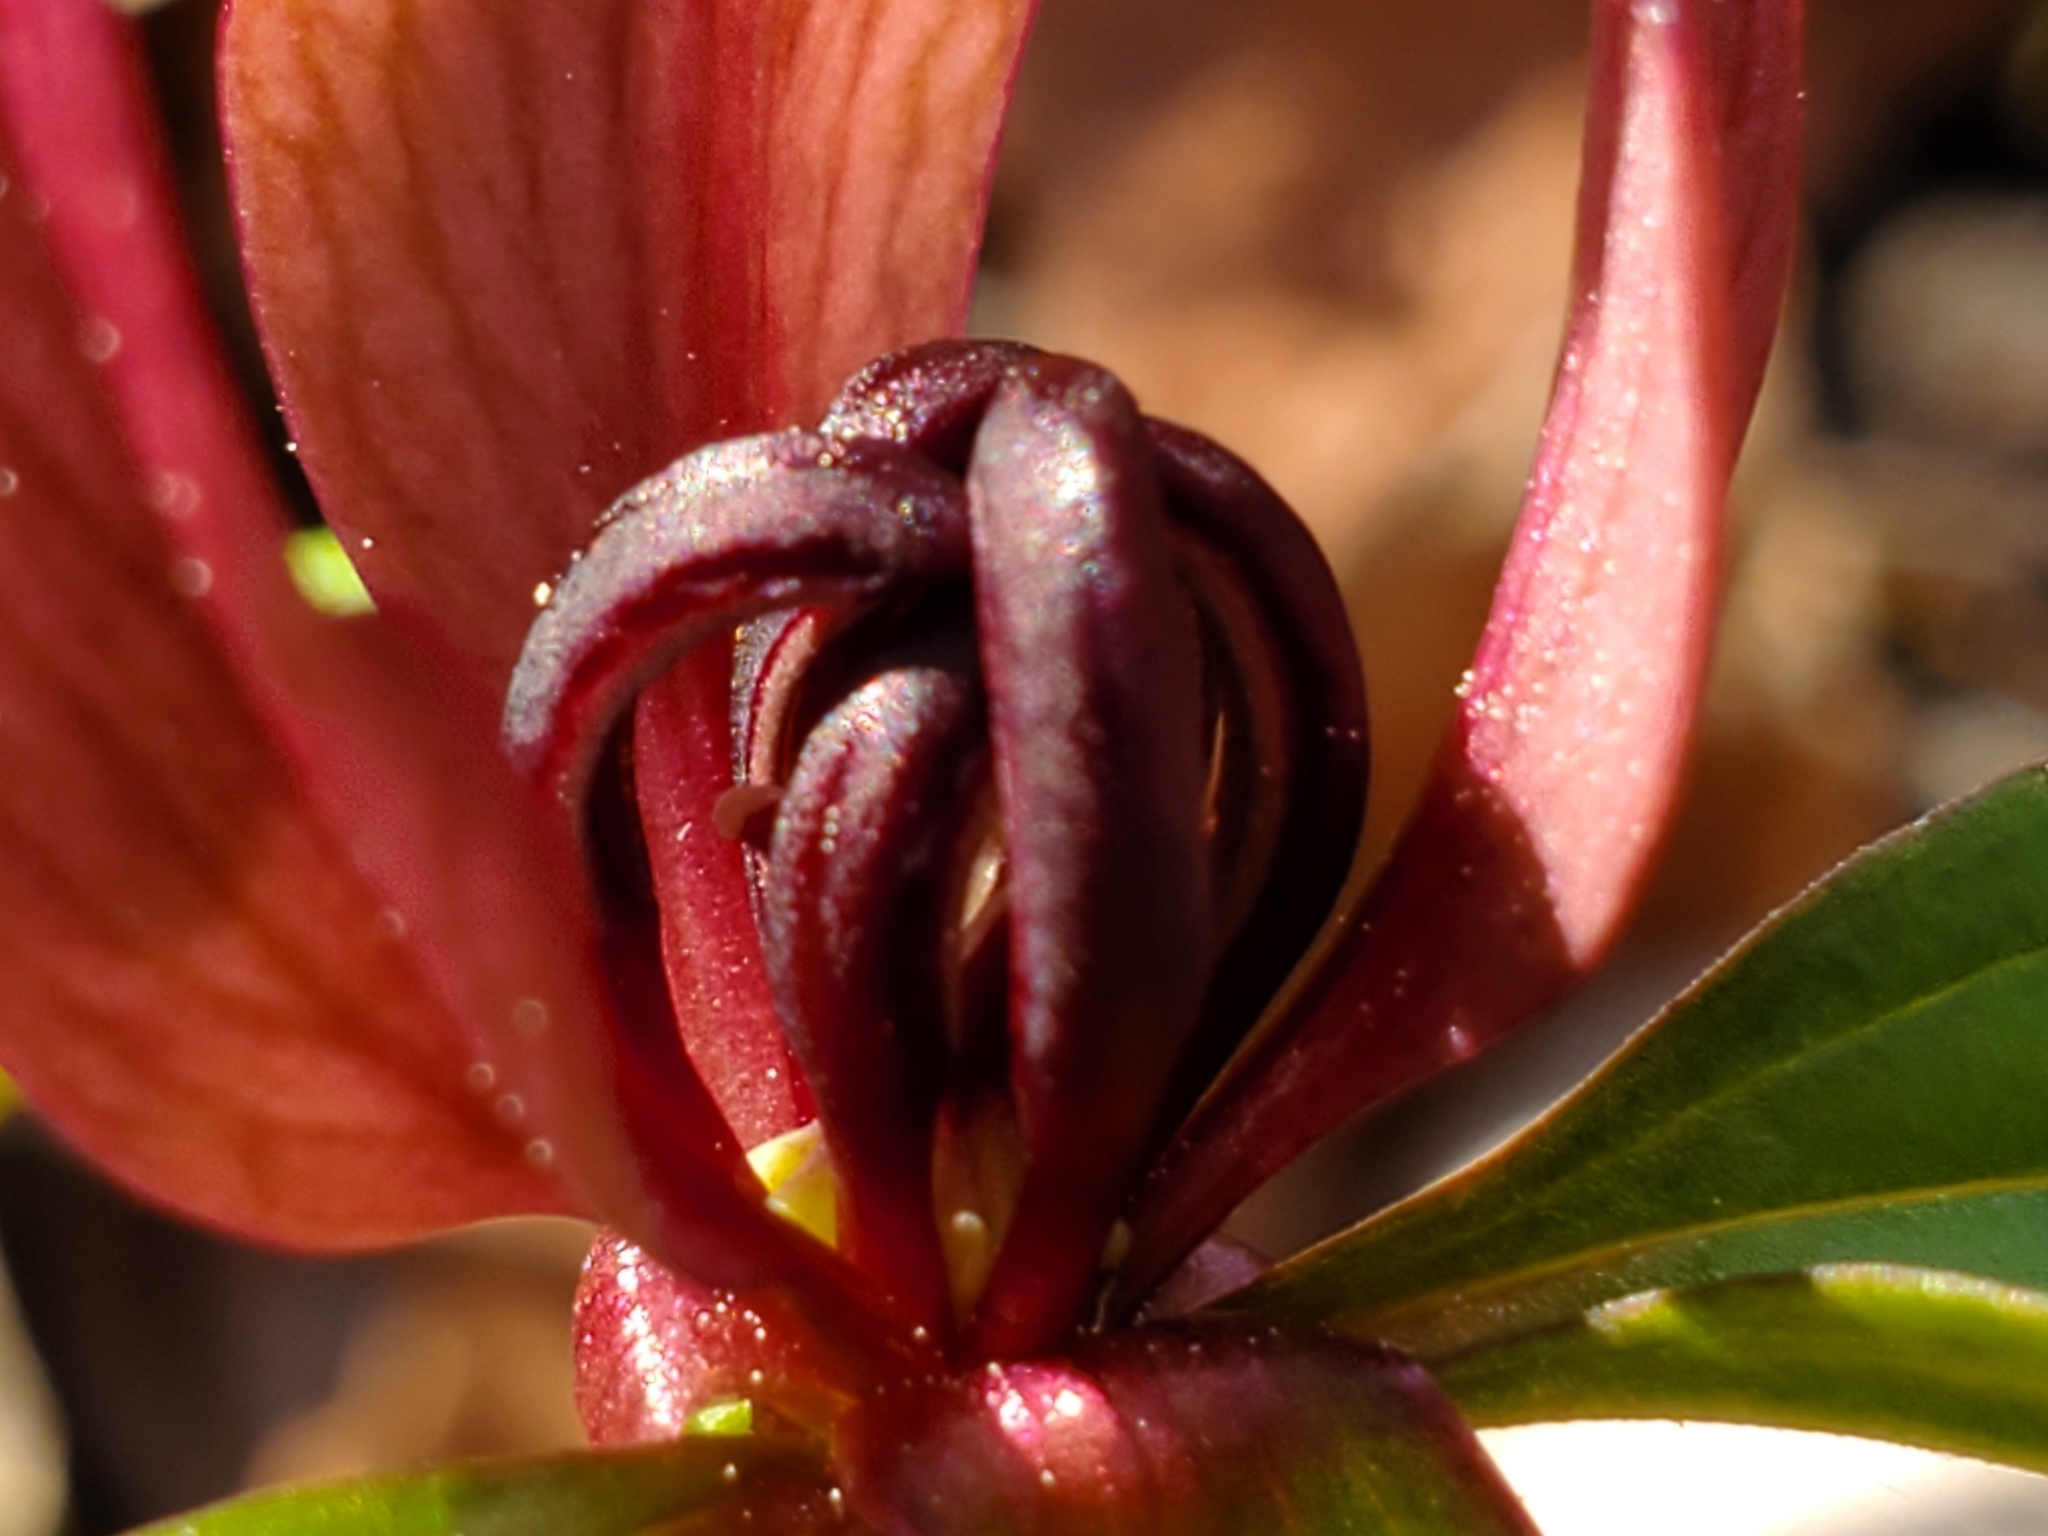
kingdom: Plantae
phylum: Tracheophyta
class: Liliopsida
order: Liliales
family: Melanthiaceae
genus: Trillium
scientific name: Trillium recurvatum
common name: Bloody butcher
